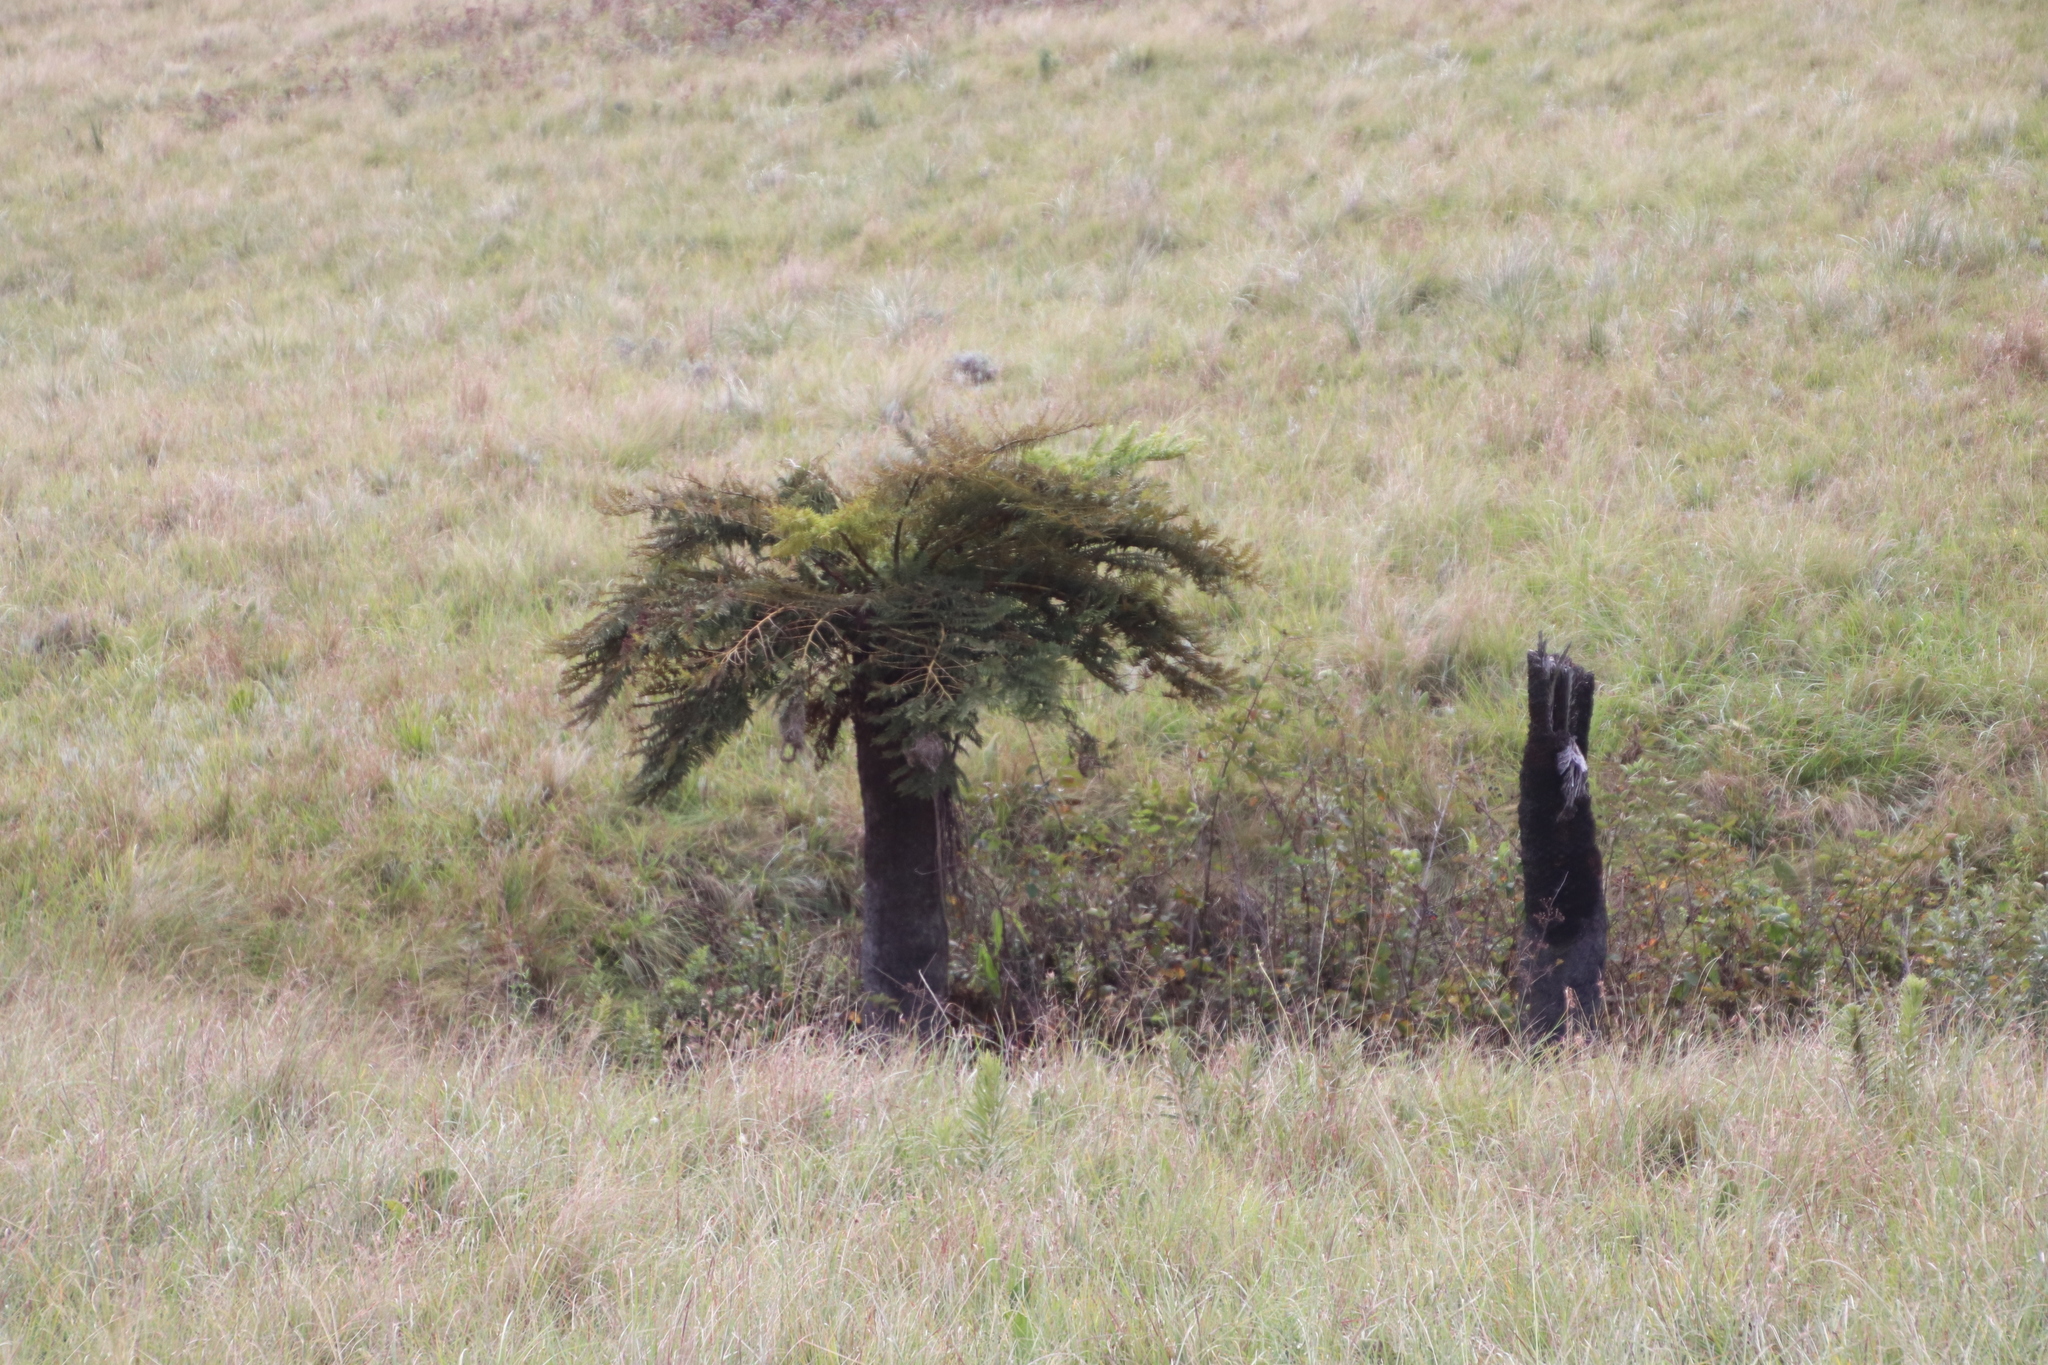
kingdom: Plantae
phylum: Tracheophyta
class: Polypodiopsida
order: Cyatheales
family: Cyatheaceae
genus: Alsophila
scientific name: Alsophila dregei
